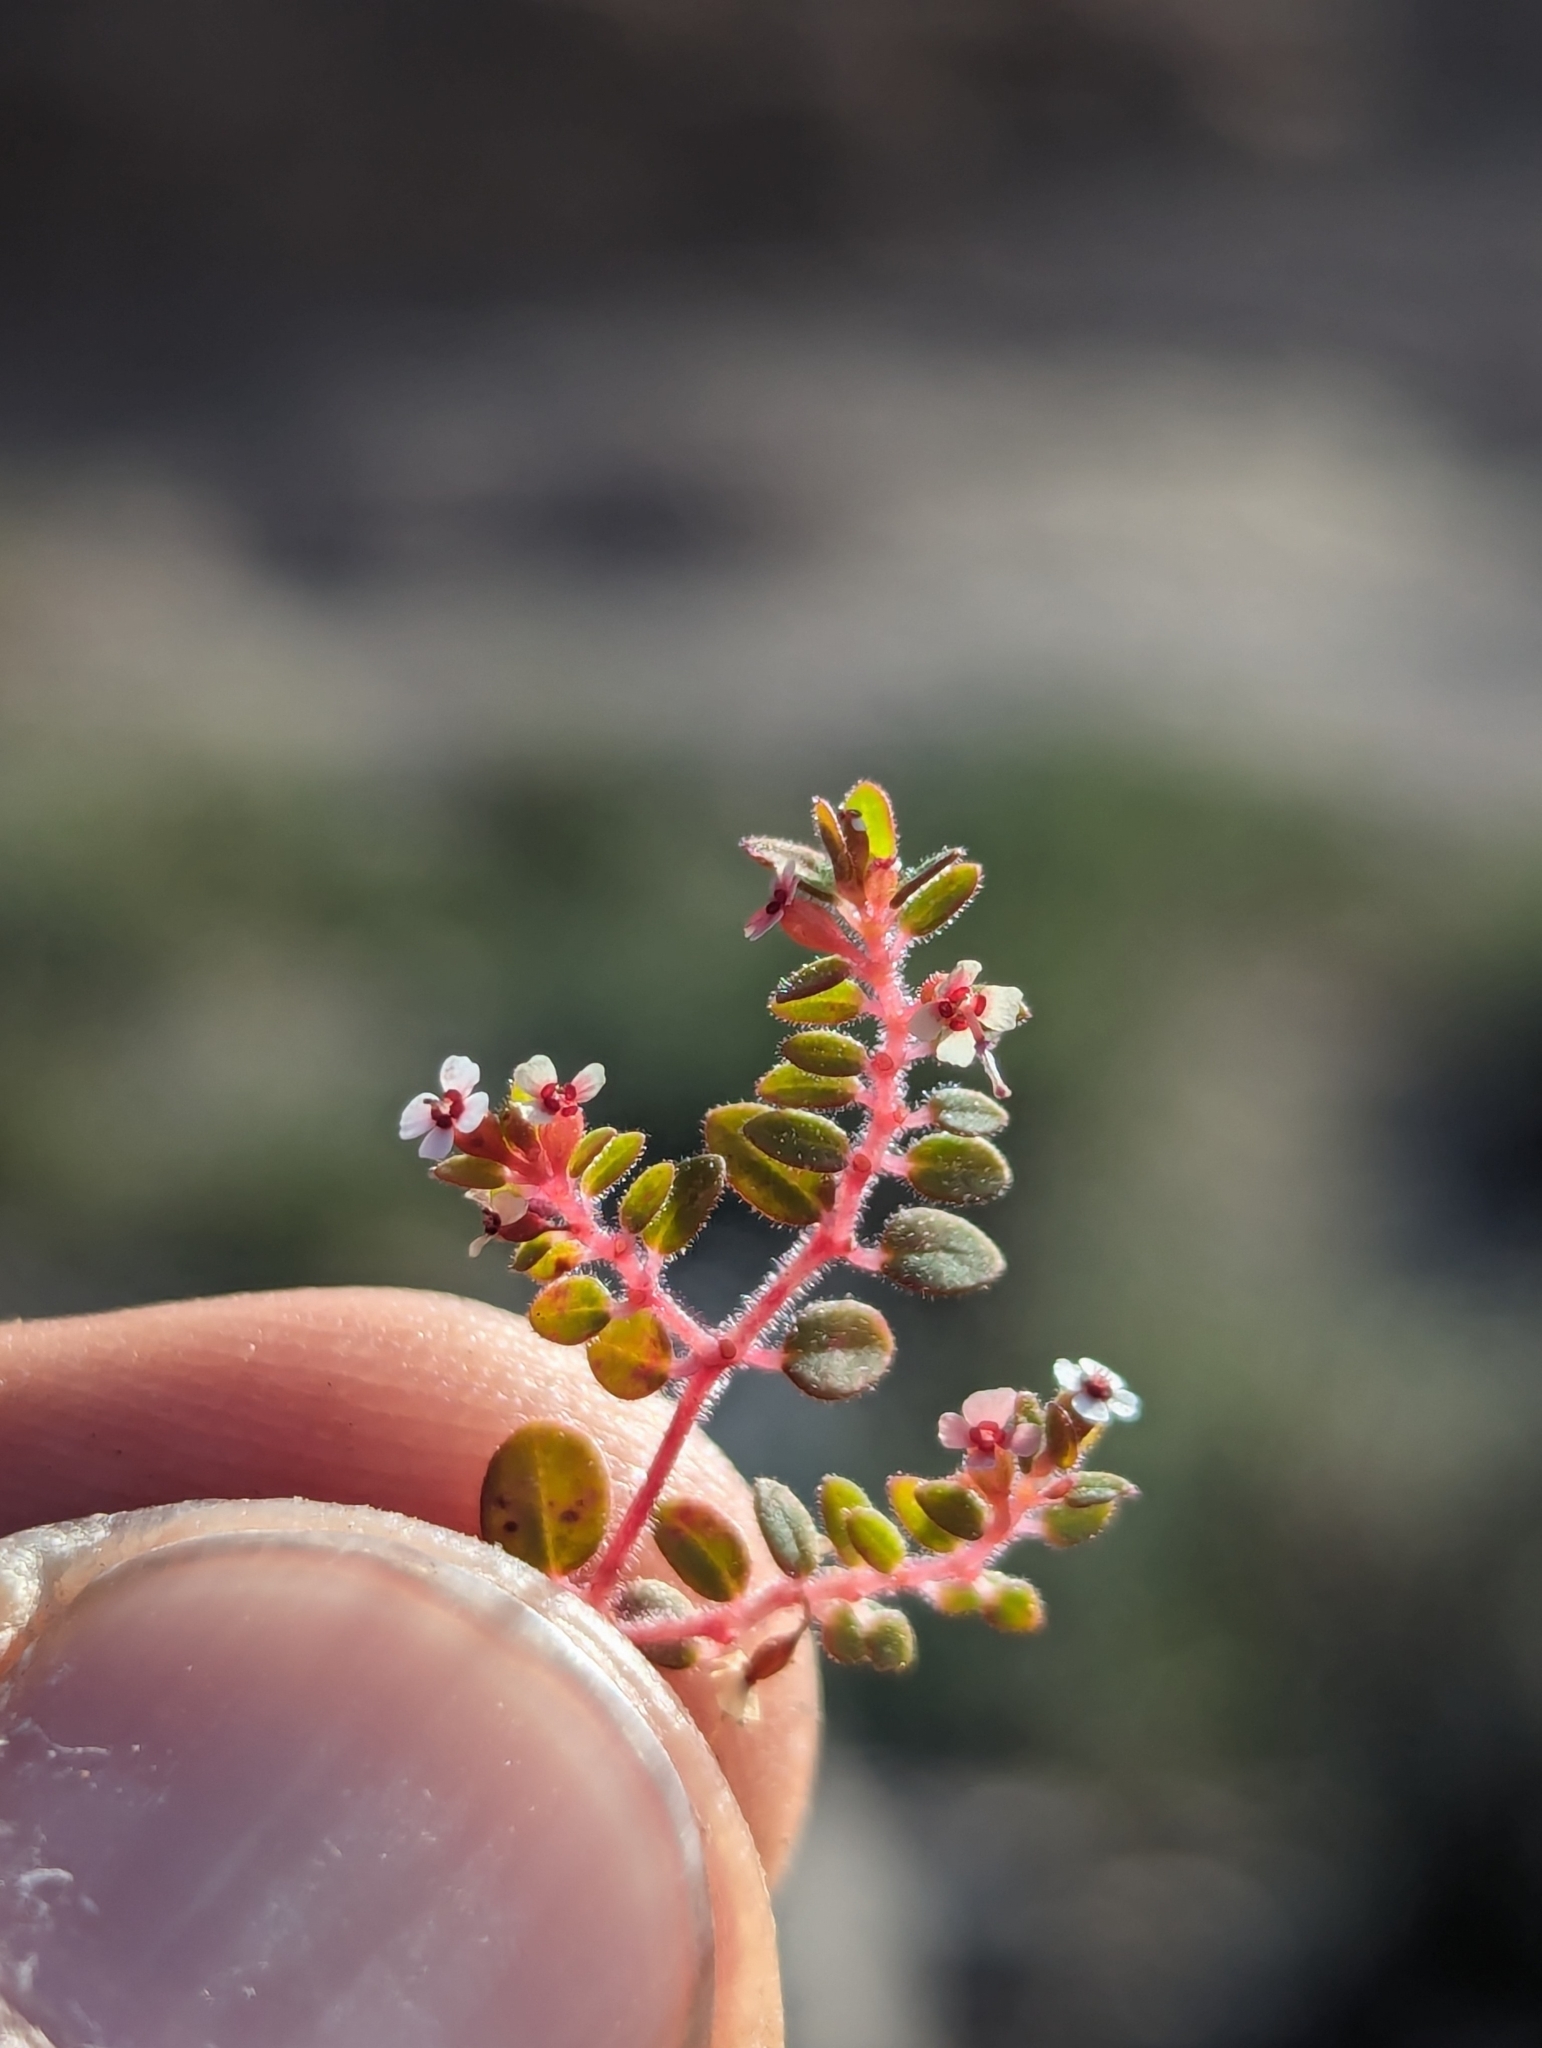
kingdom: Plantae
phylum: Tracheophyta
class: Magnoliopsida
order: Malpighiales
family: Euphorbiaceae
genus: Euphorbia
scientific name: Euphorbia arizonica
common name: Arizona spurge
